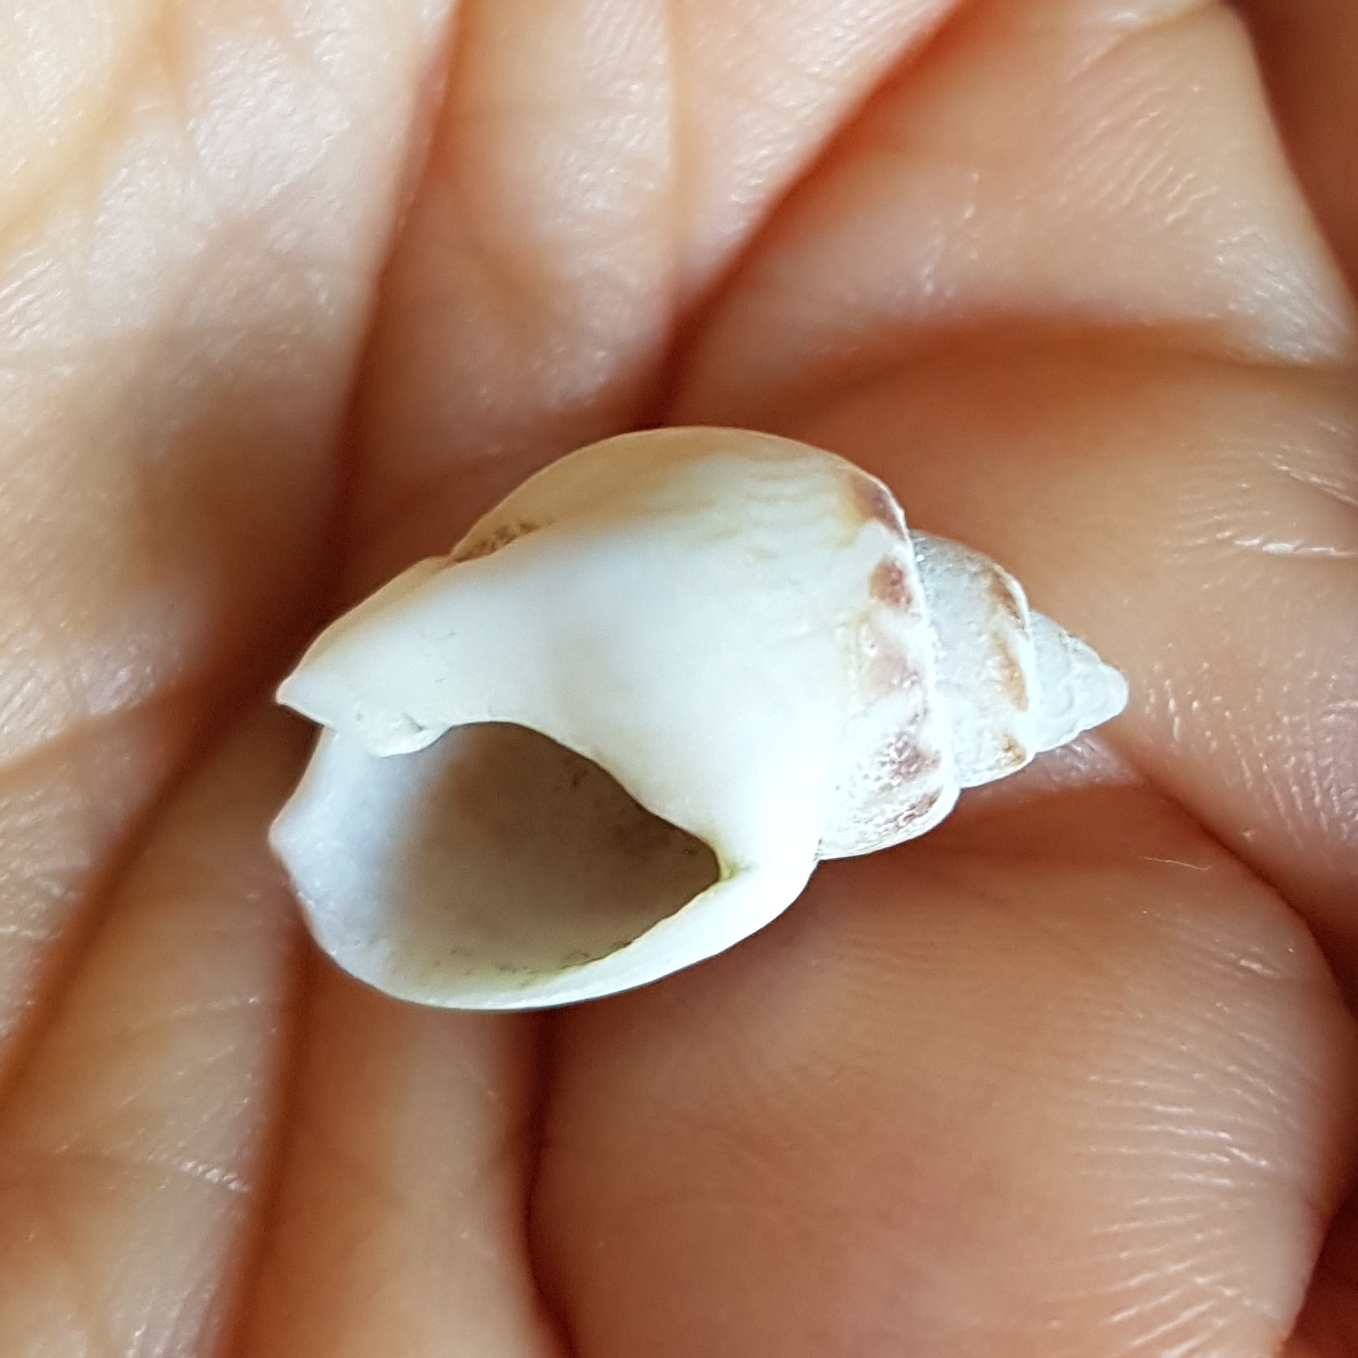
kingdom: Animalia
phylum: Mollusca
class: Gastropoda
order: Neogastropoda
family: Nassariidae
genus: Tritia
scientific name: Tritia mutabilis
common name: Mutable nassa
